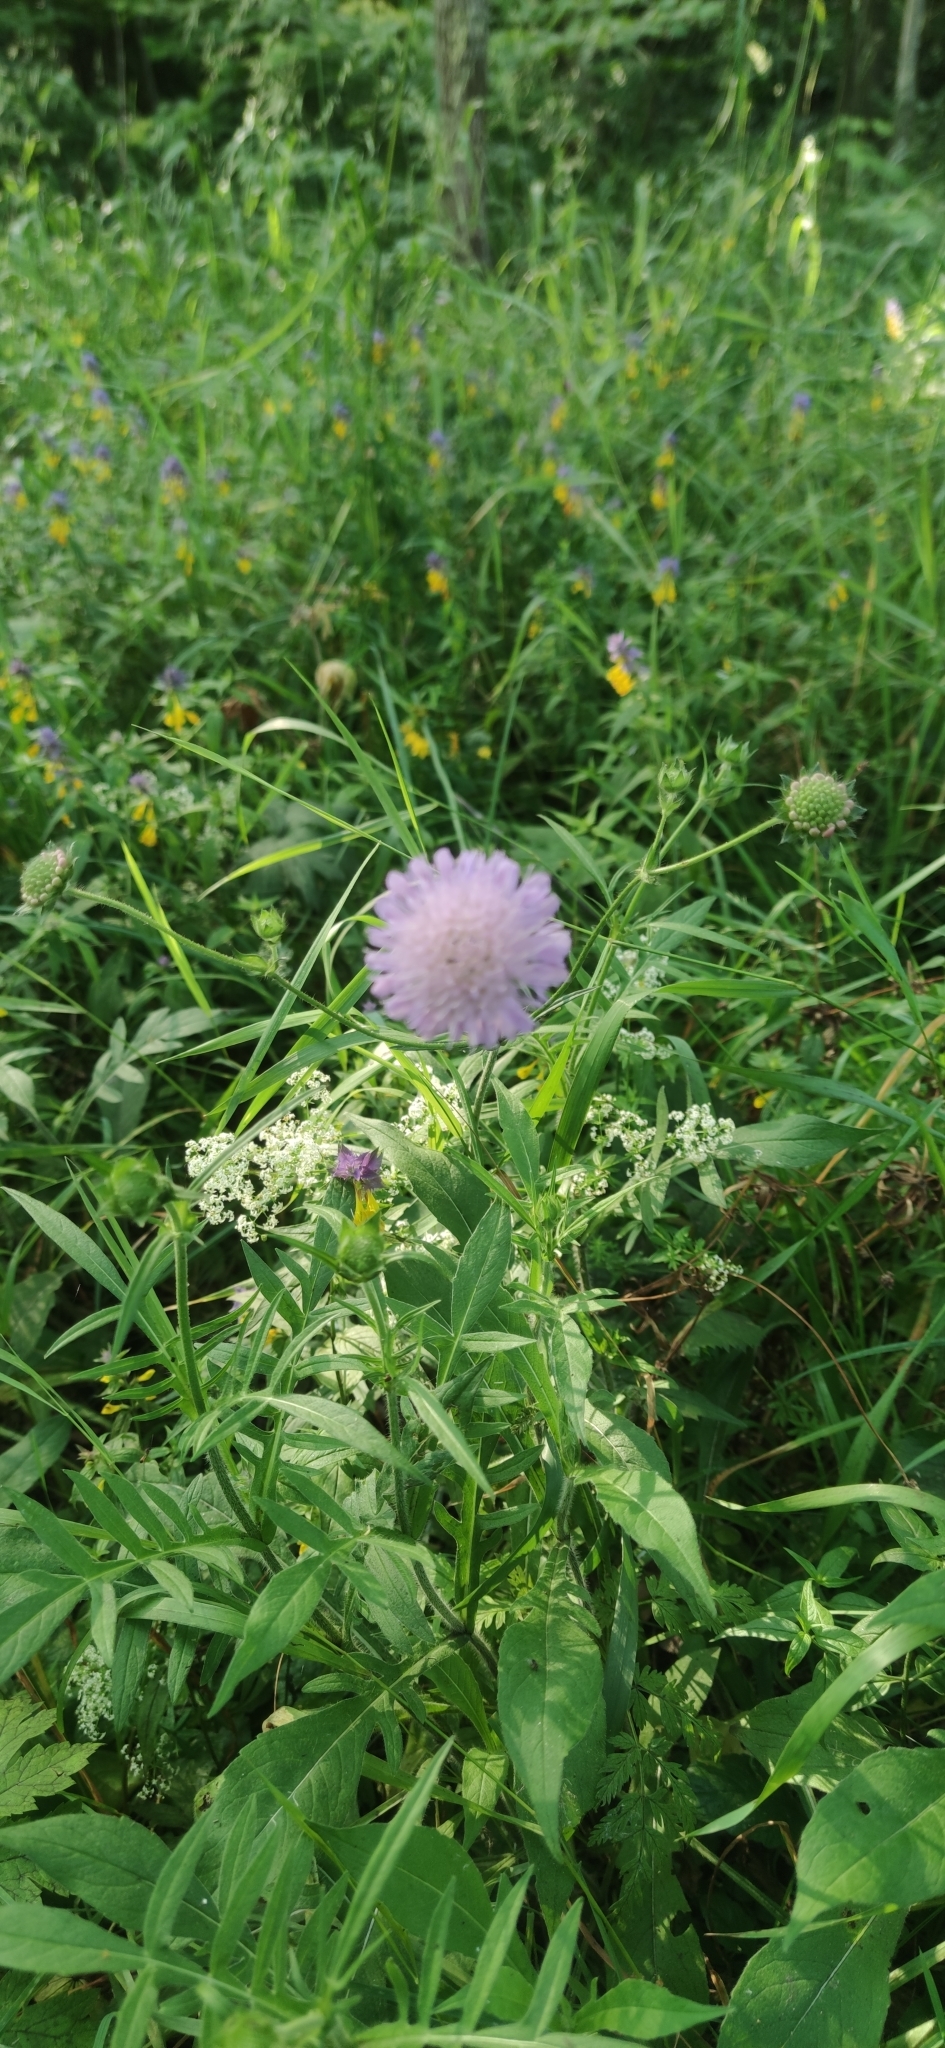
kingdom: Plantae
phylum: Tracheophyta
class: Magnoliopsida
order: Dipsacales
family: Caprifoliaceae
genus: Knautia
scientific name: Knautia arvensis
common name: Field scabiosa
